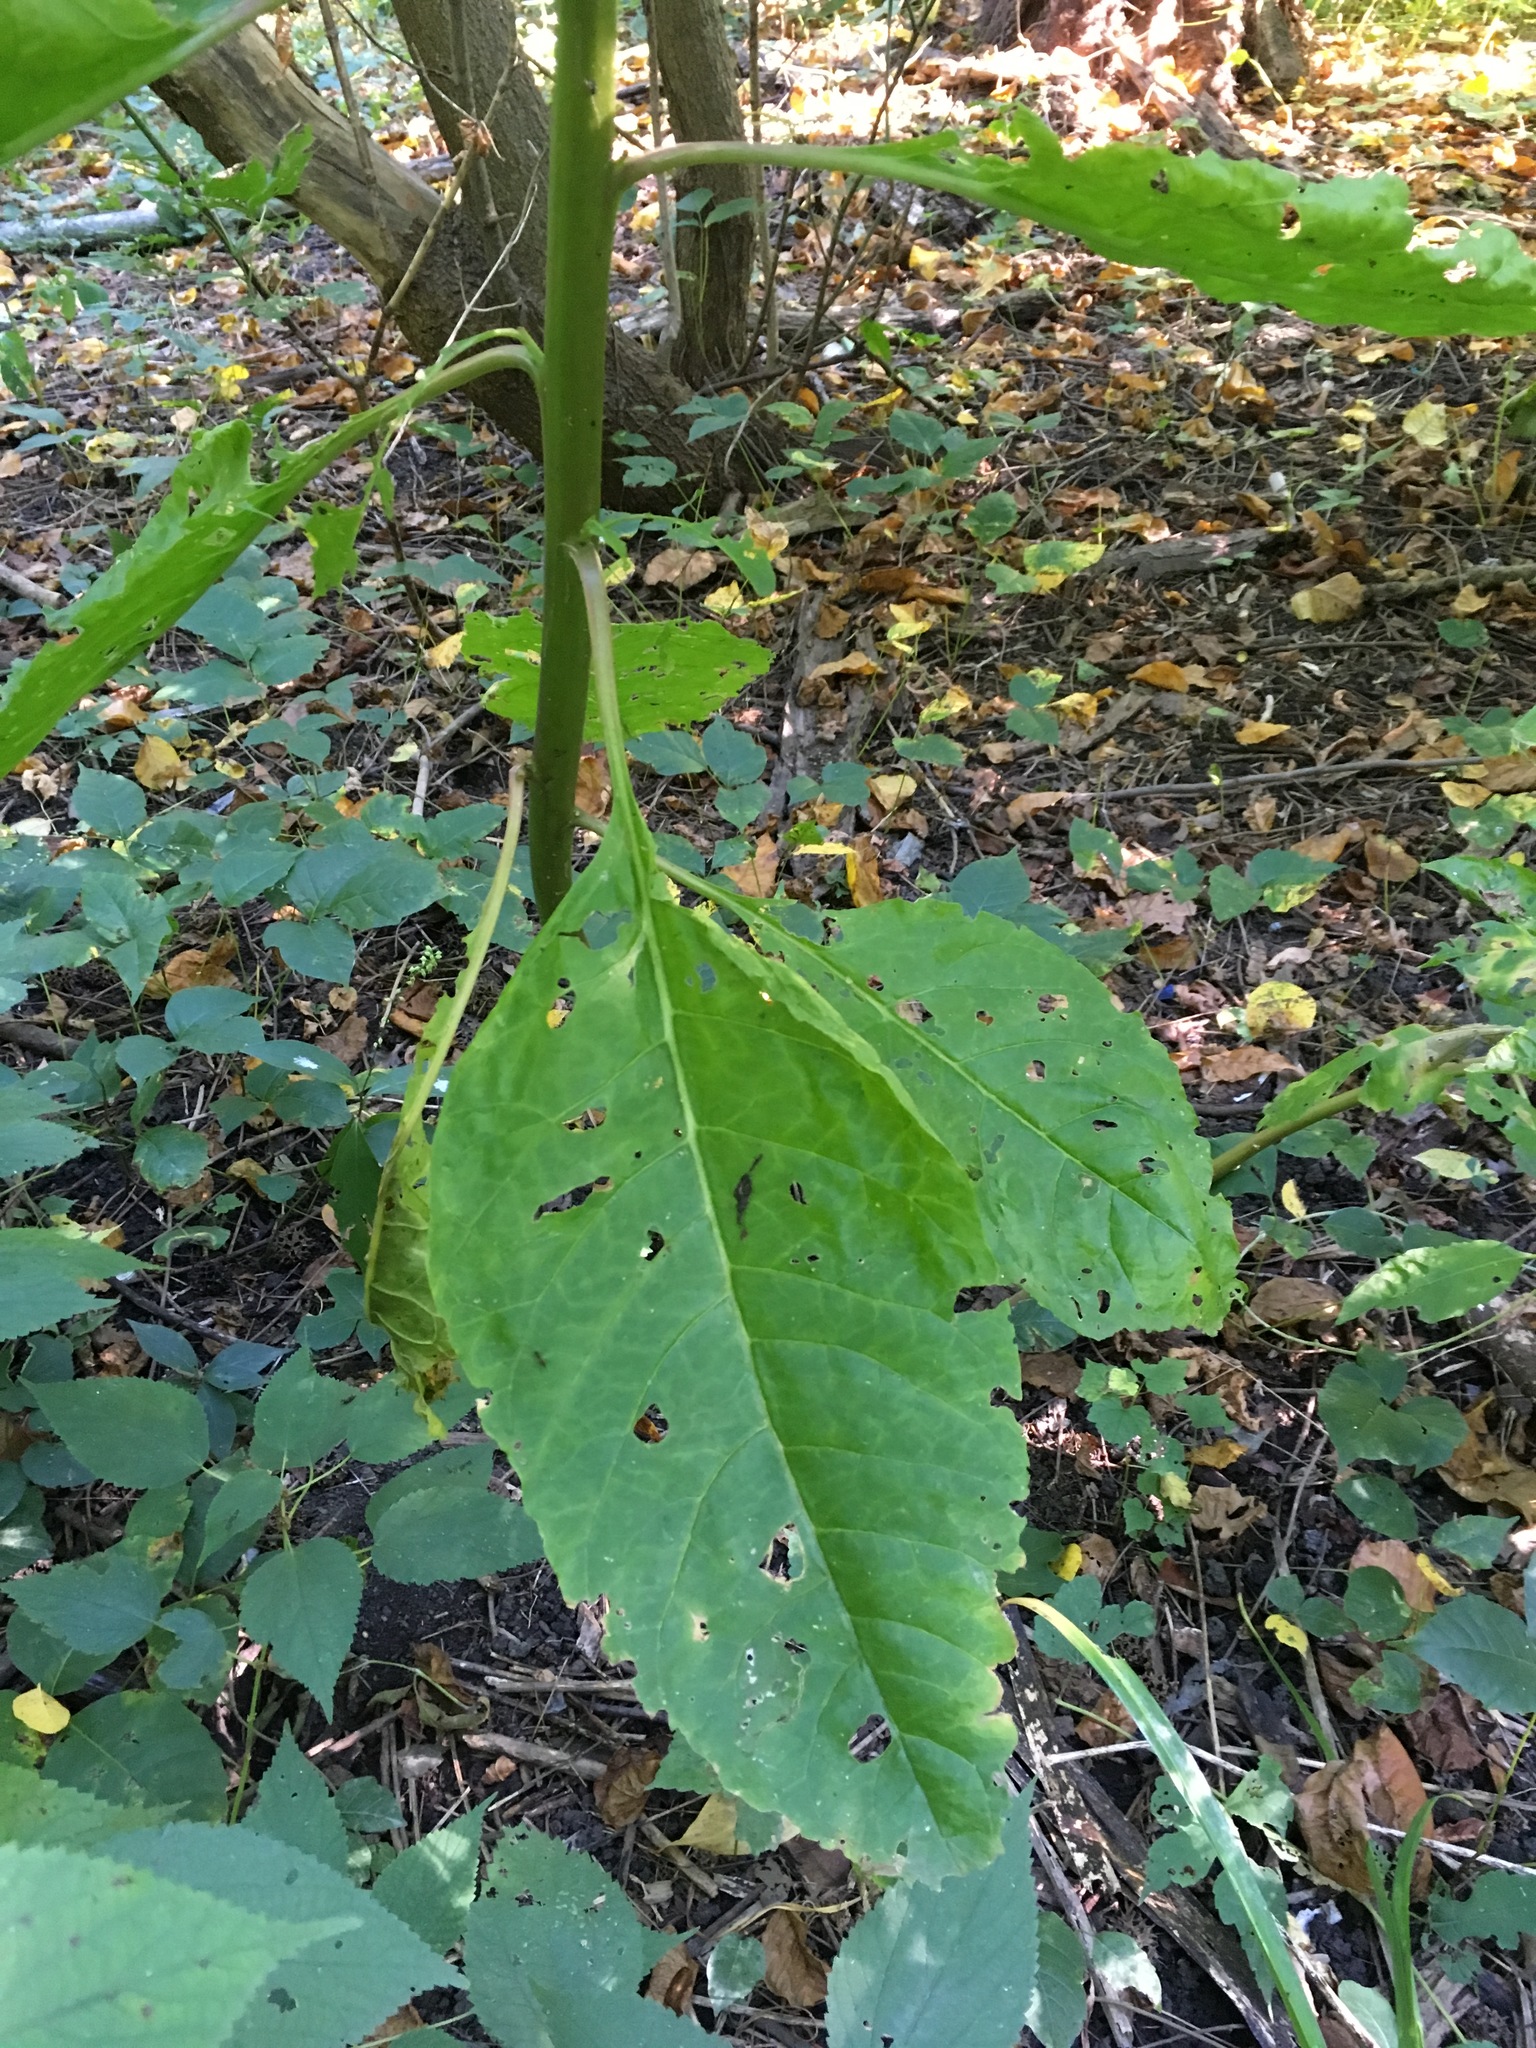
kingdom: Plantae
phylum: Tracheophyta
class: Magnoliopsida
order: Caryophyllales
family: Phytolaccaceae
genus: Phytolacca
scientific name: Phytolacca americana
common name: American pokeweed
